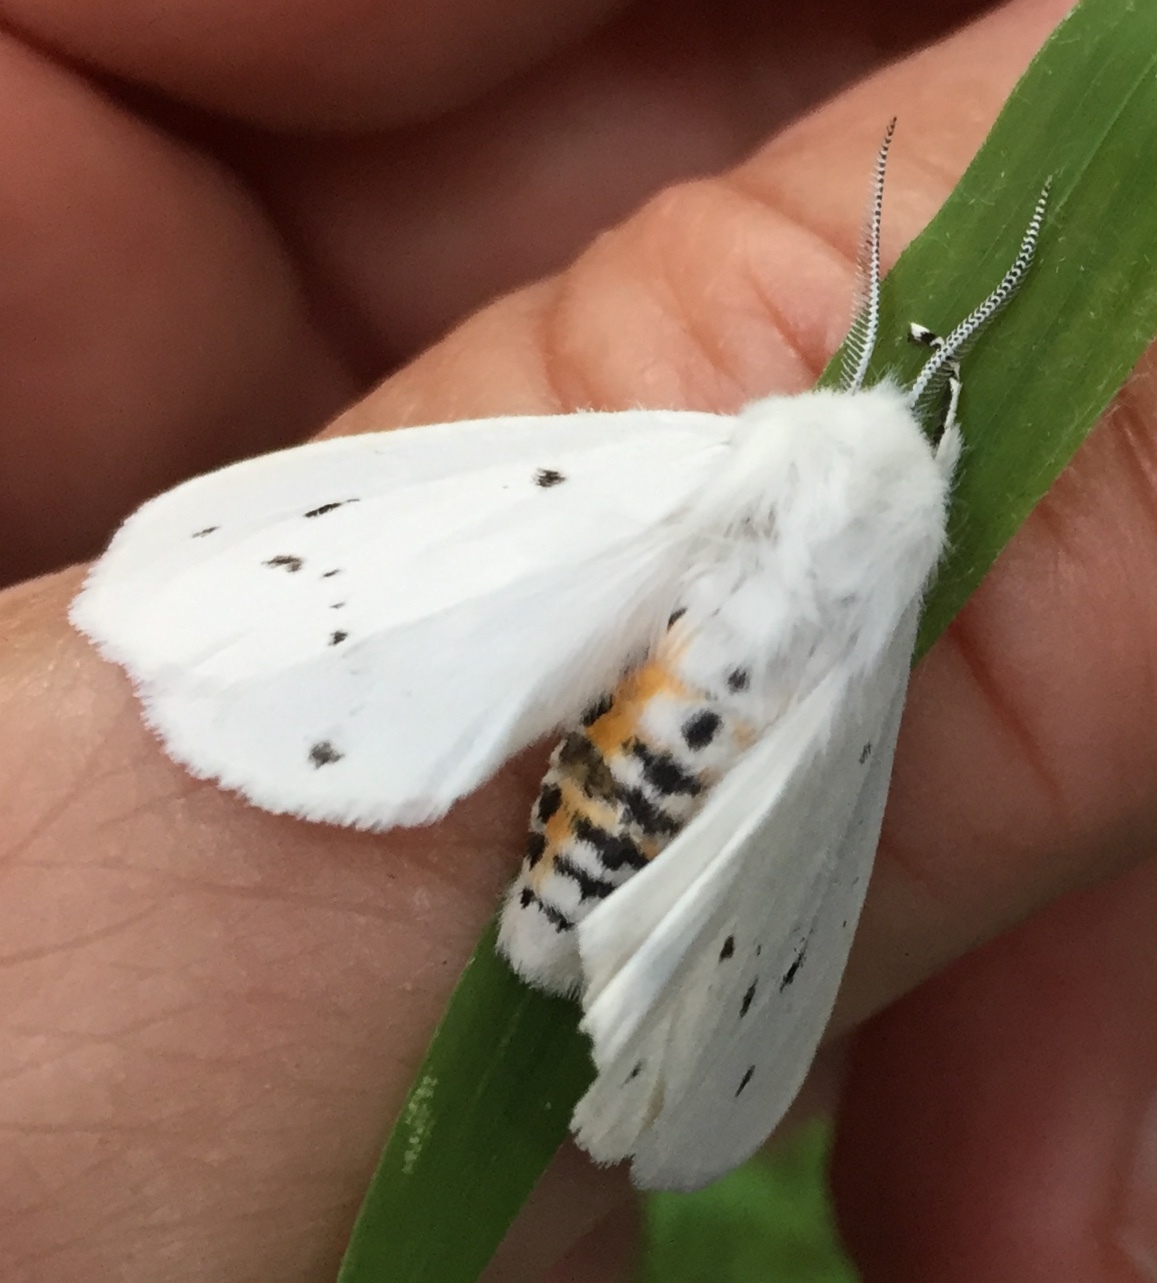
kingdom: Animalia
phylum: Arthropoda
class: Insecta
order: Lepidoptera
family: Erebidae
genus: Spilosoma
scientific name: Spilosoma virginica
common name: Virginia tiger moth
